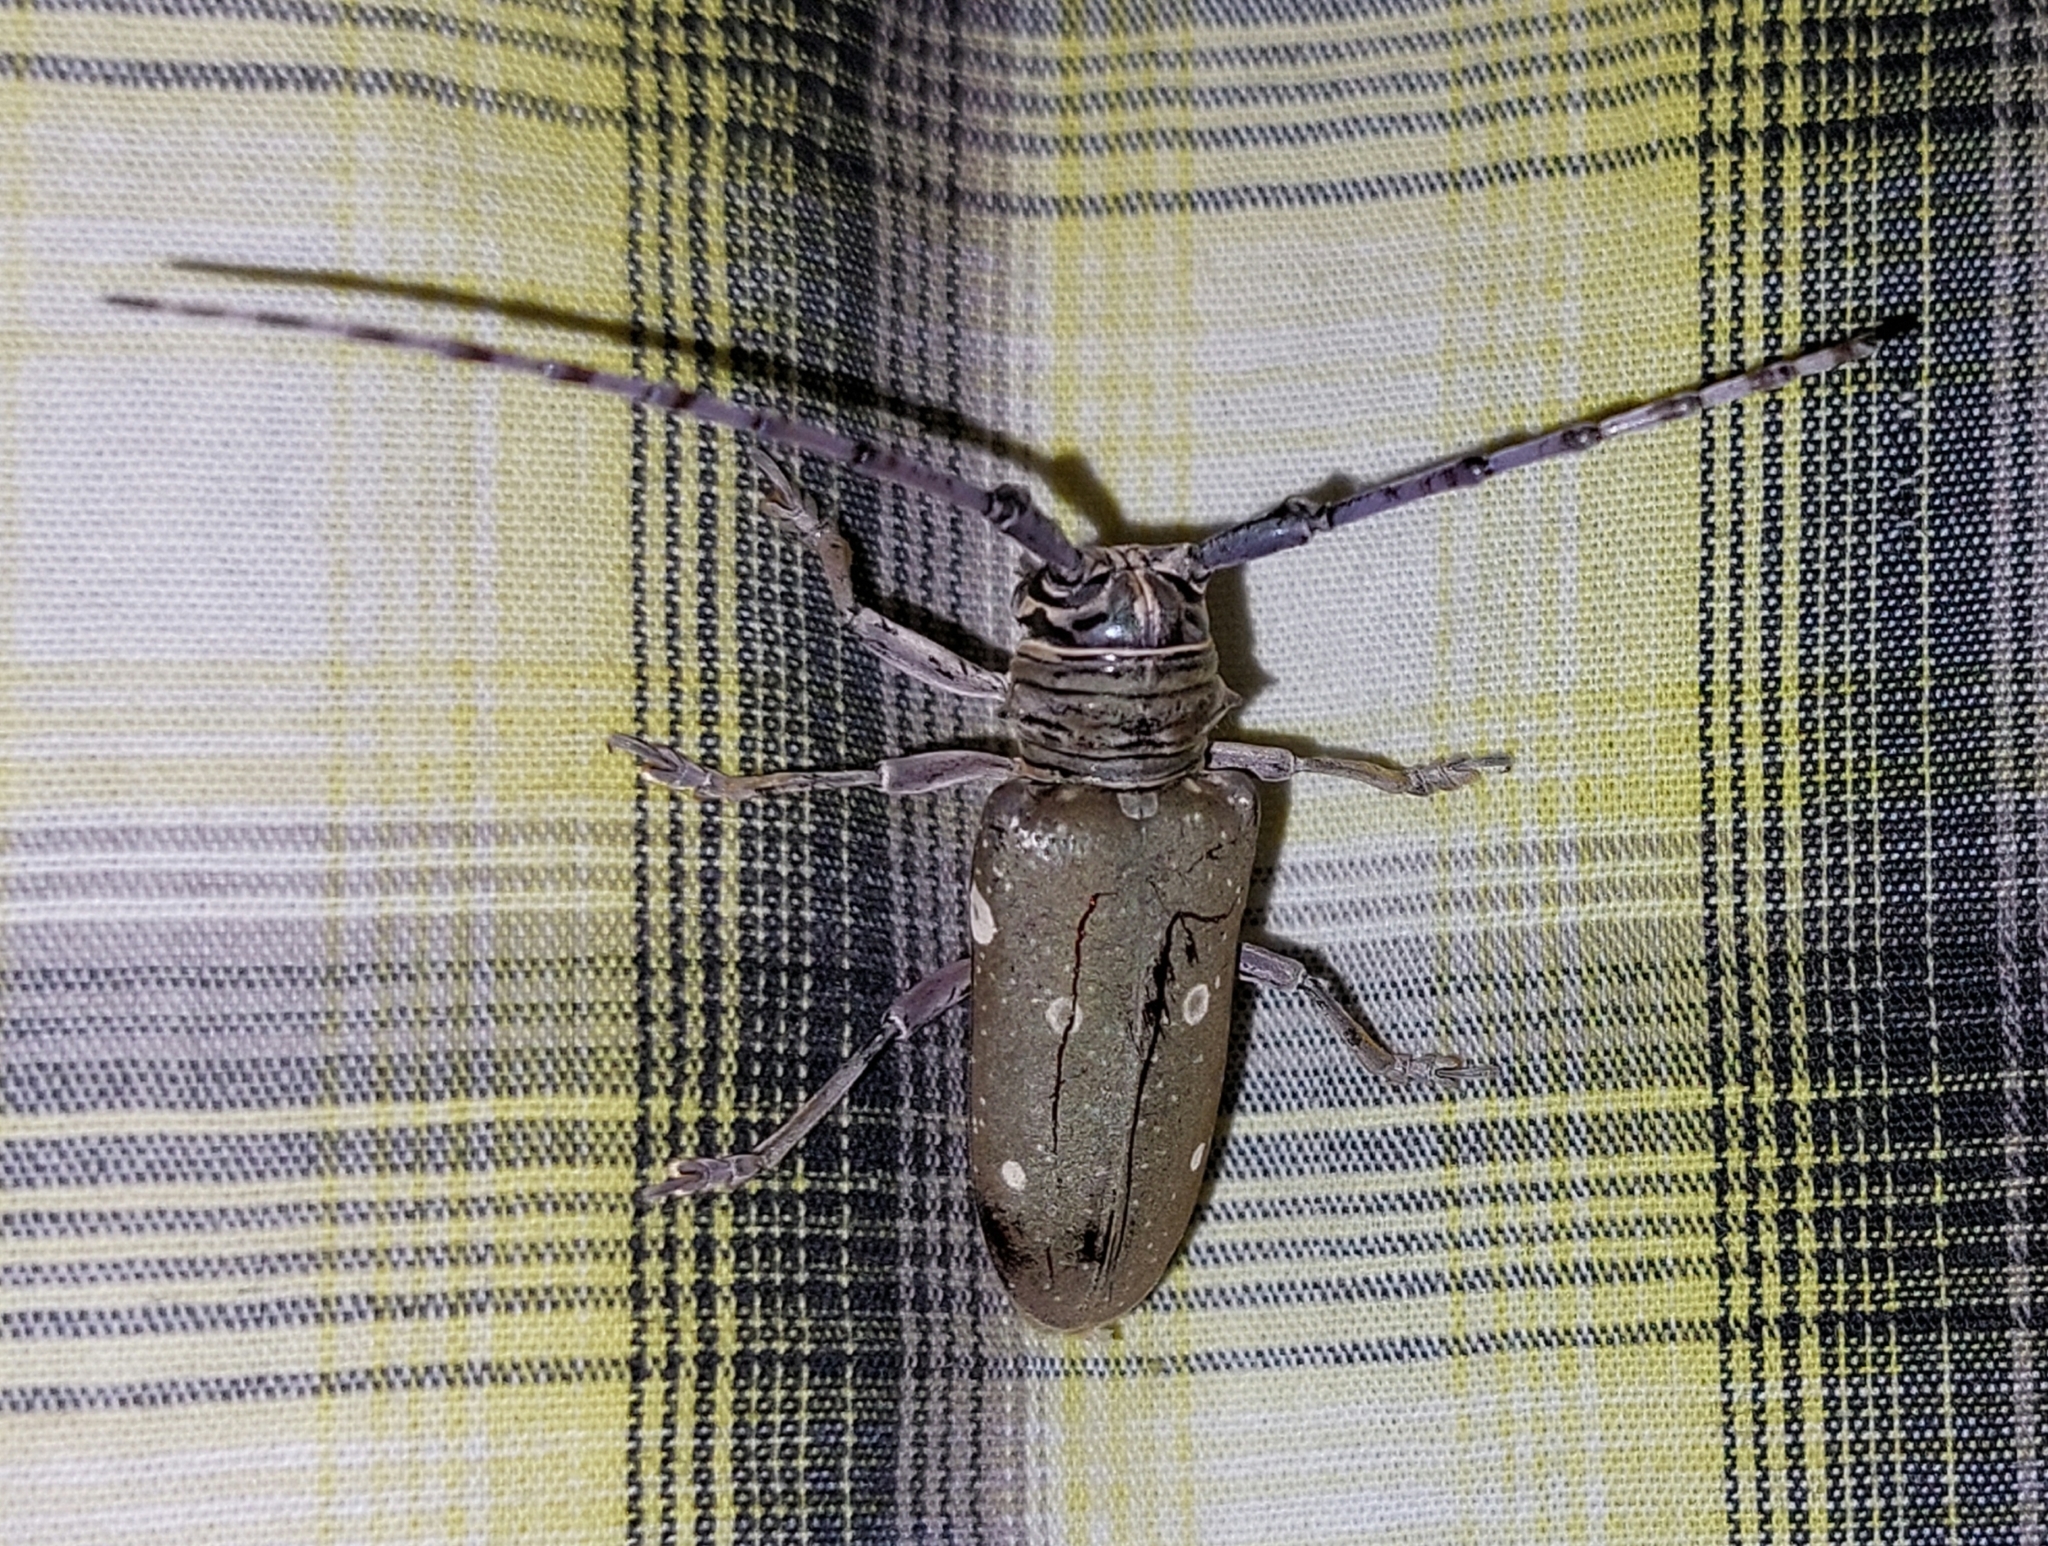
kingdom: Animalia
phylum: Arthropoda
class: Insecta
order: Coleoptera
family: Cerambycidae
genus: Prosopocera
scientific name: Prosopocera dejeani
